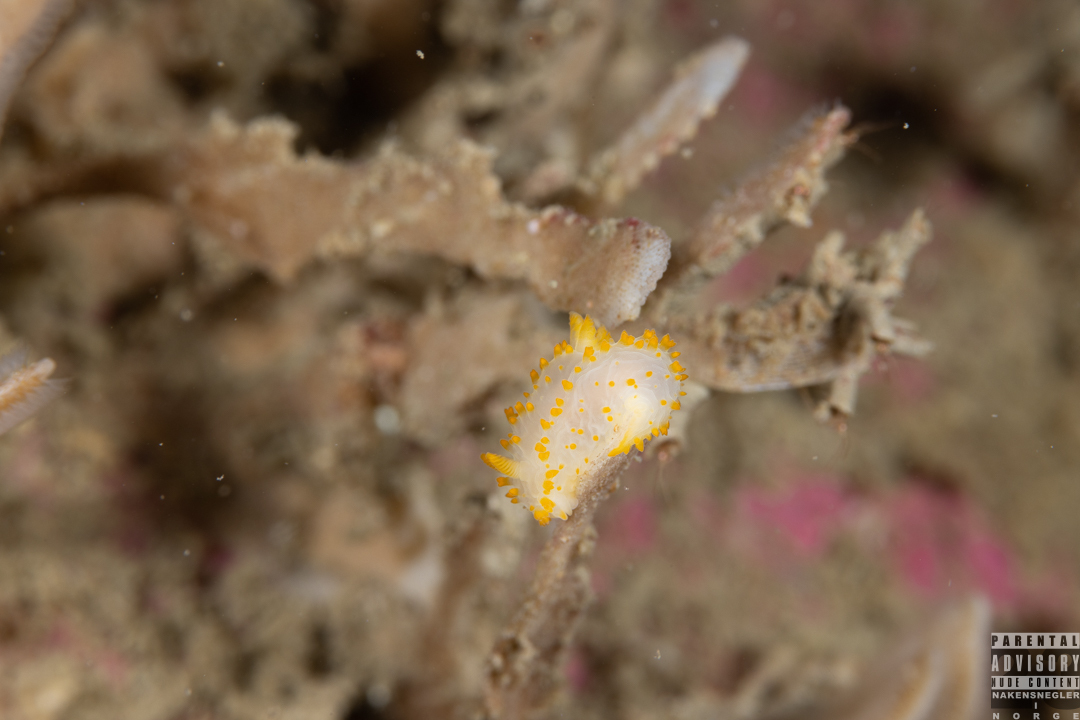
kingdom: Animalia
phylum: Mollusca
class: Gastropoda
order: Nudibranchia
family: Polyceridae
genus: Crimora
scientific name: Crimora papillata
